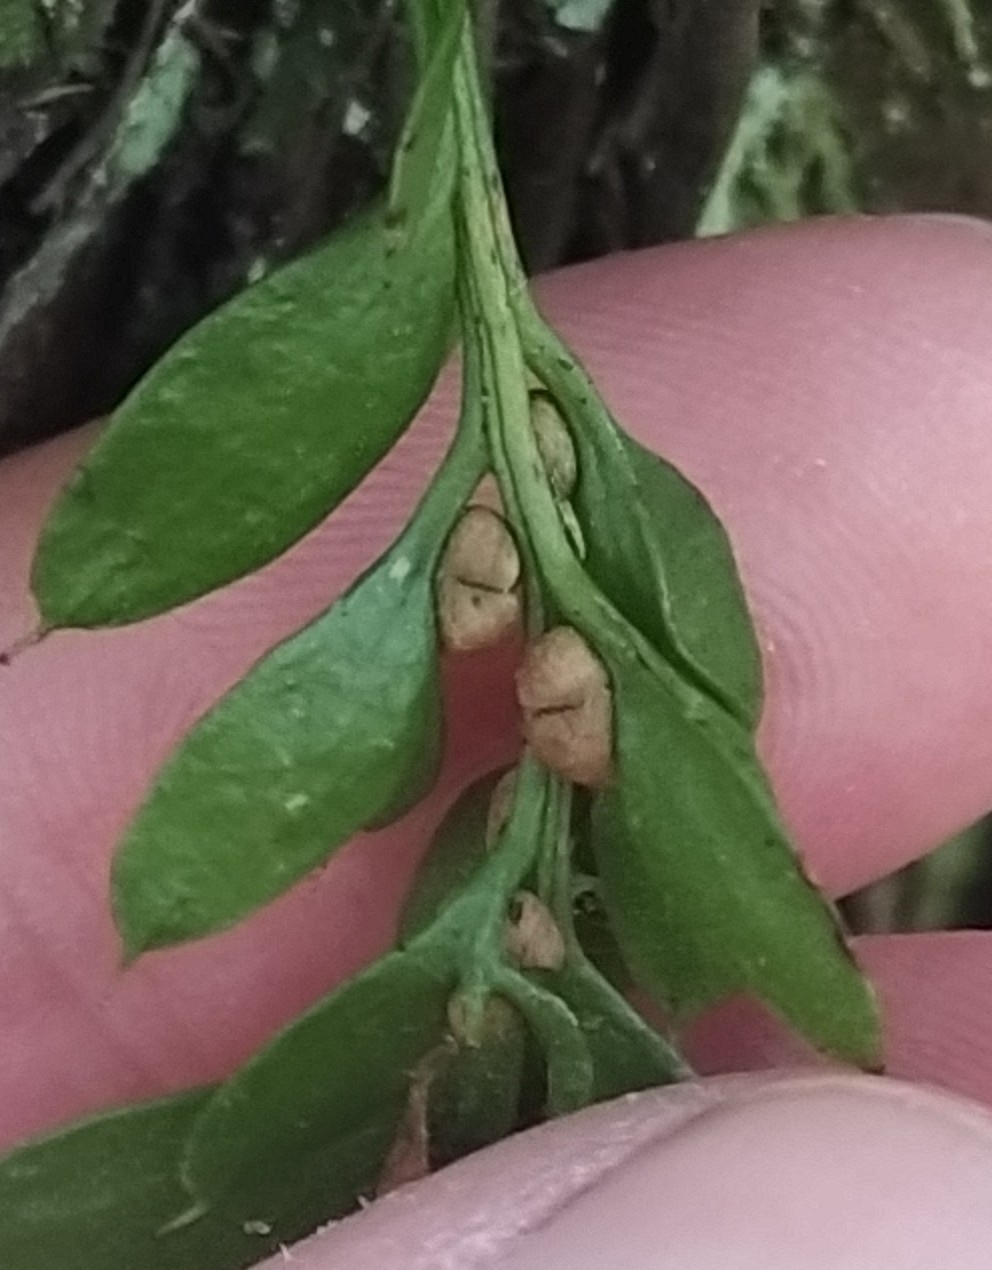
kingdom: Plantae
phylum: Tracheophyta
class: Polypodiopsida
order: Psilotales
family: Psilotaceae
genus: Tmesipteris
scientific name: Tmesipteris lanceolata
